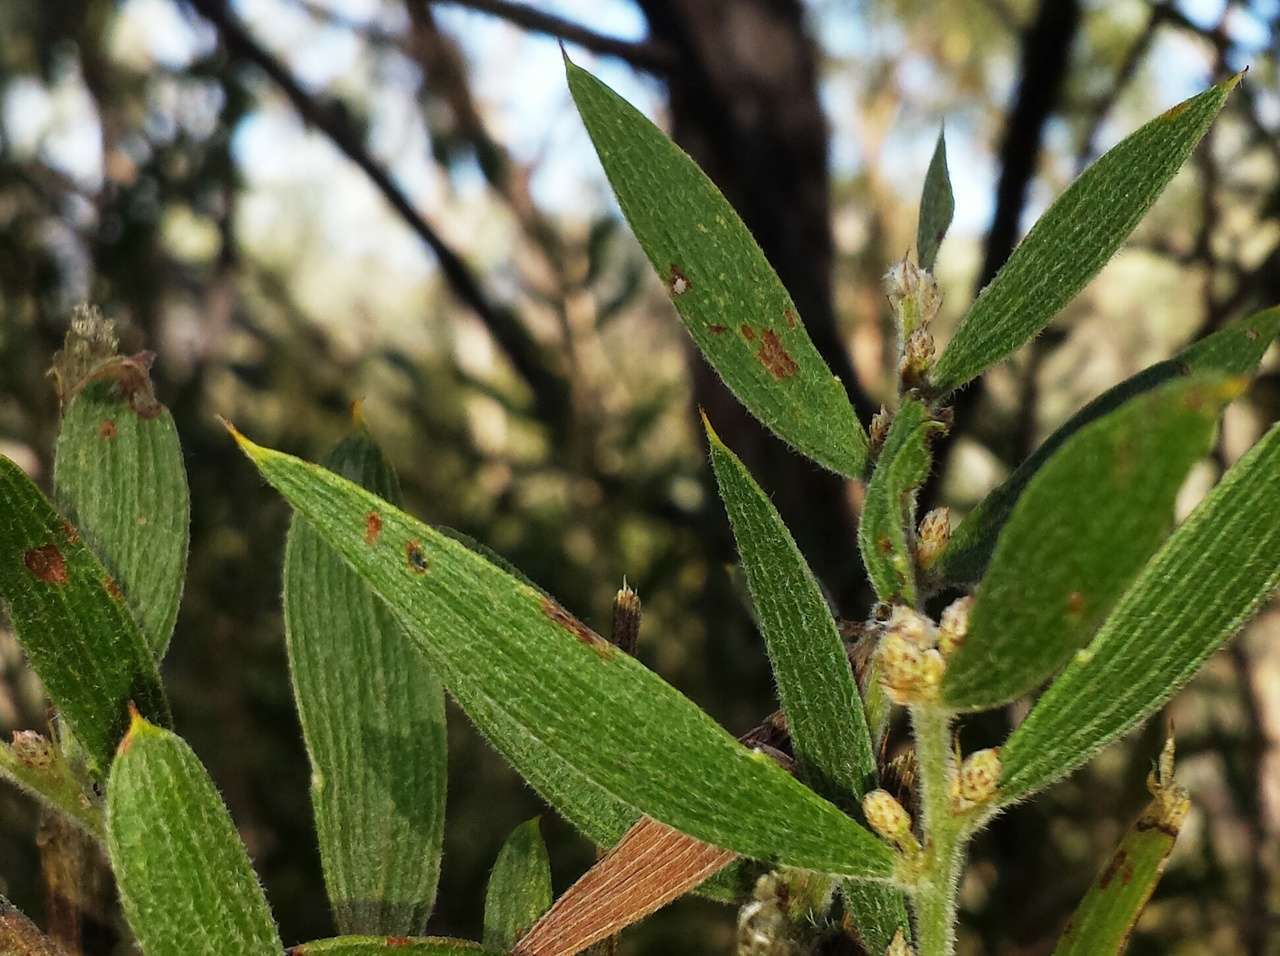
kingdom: Plantae
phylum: Tracheophyta
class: Magnoliopsida
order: Fabales
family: Fabaceae
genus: Acacia
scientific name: Acacia lanigera
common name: Hairy wattle
